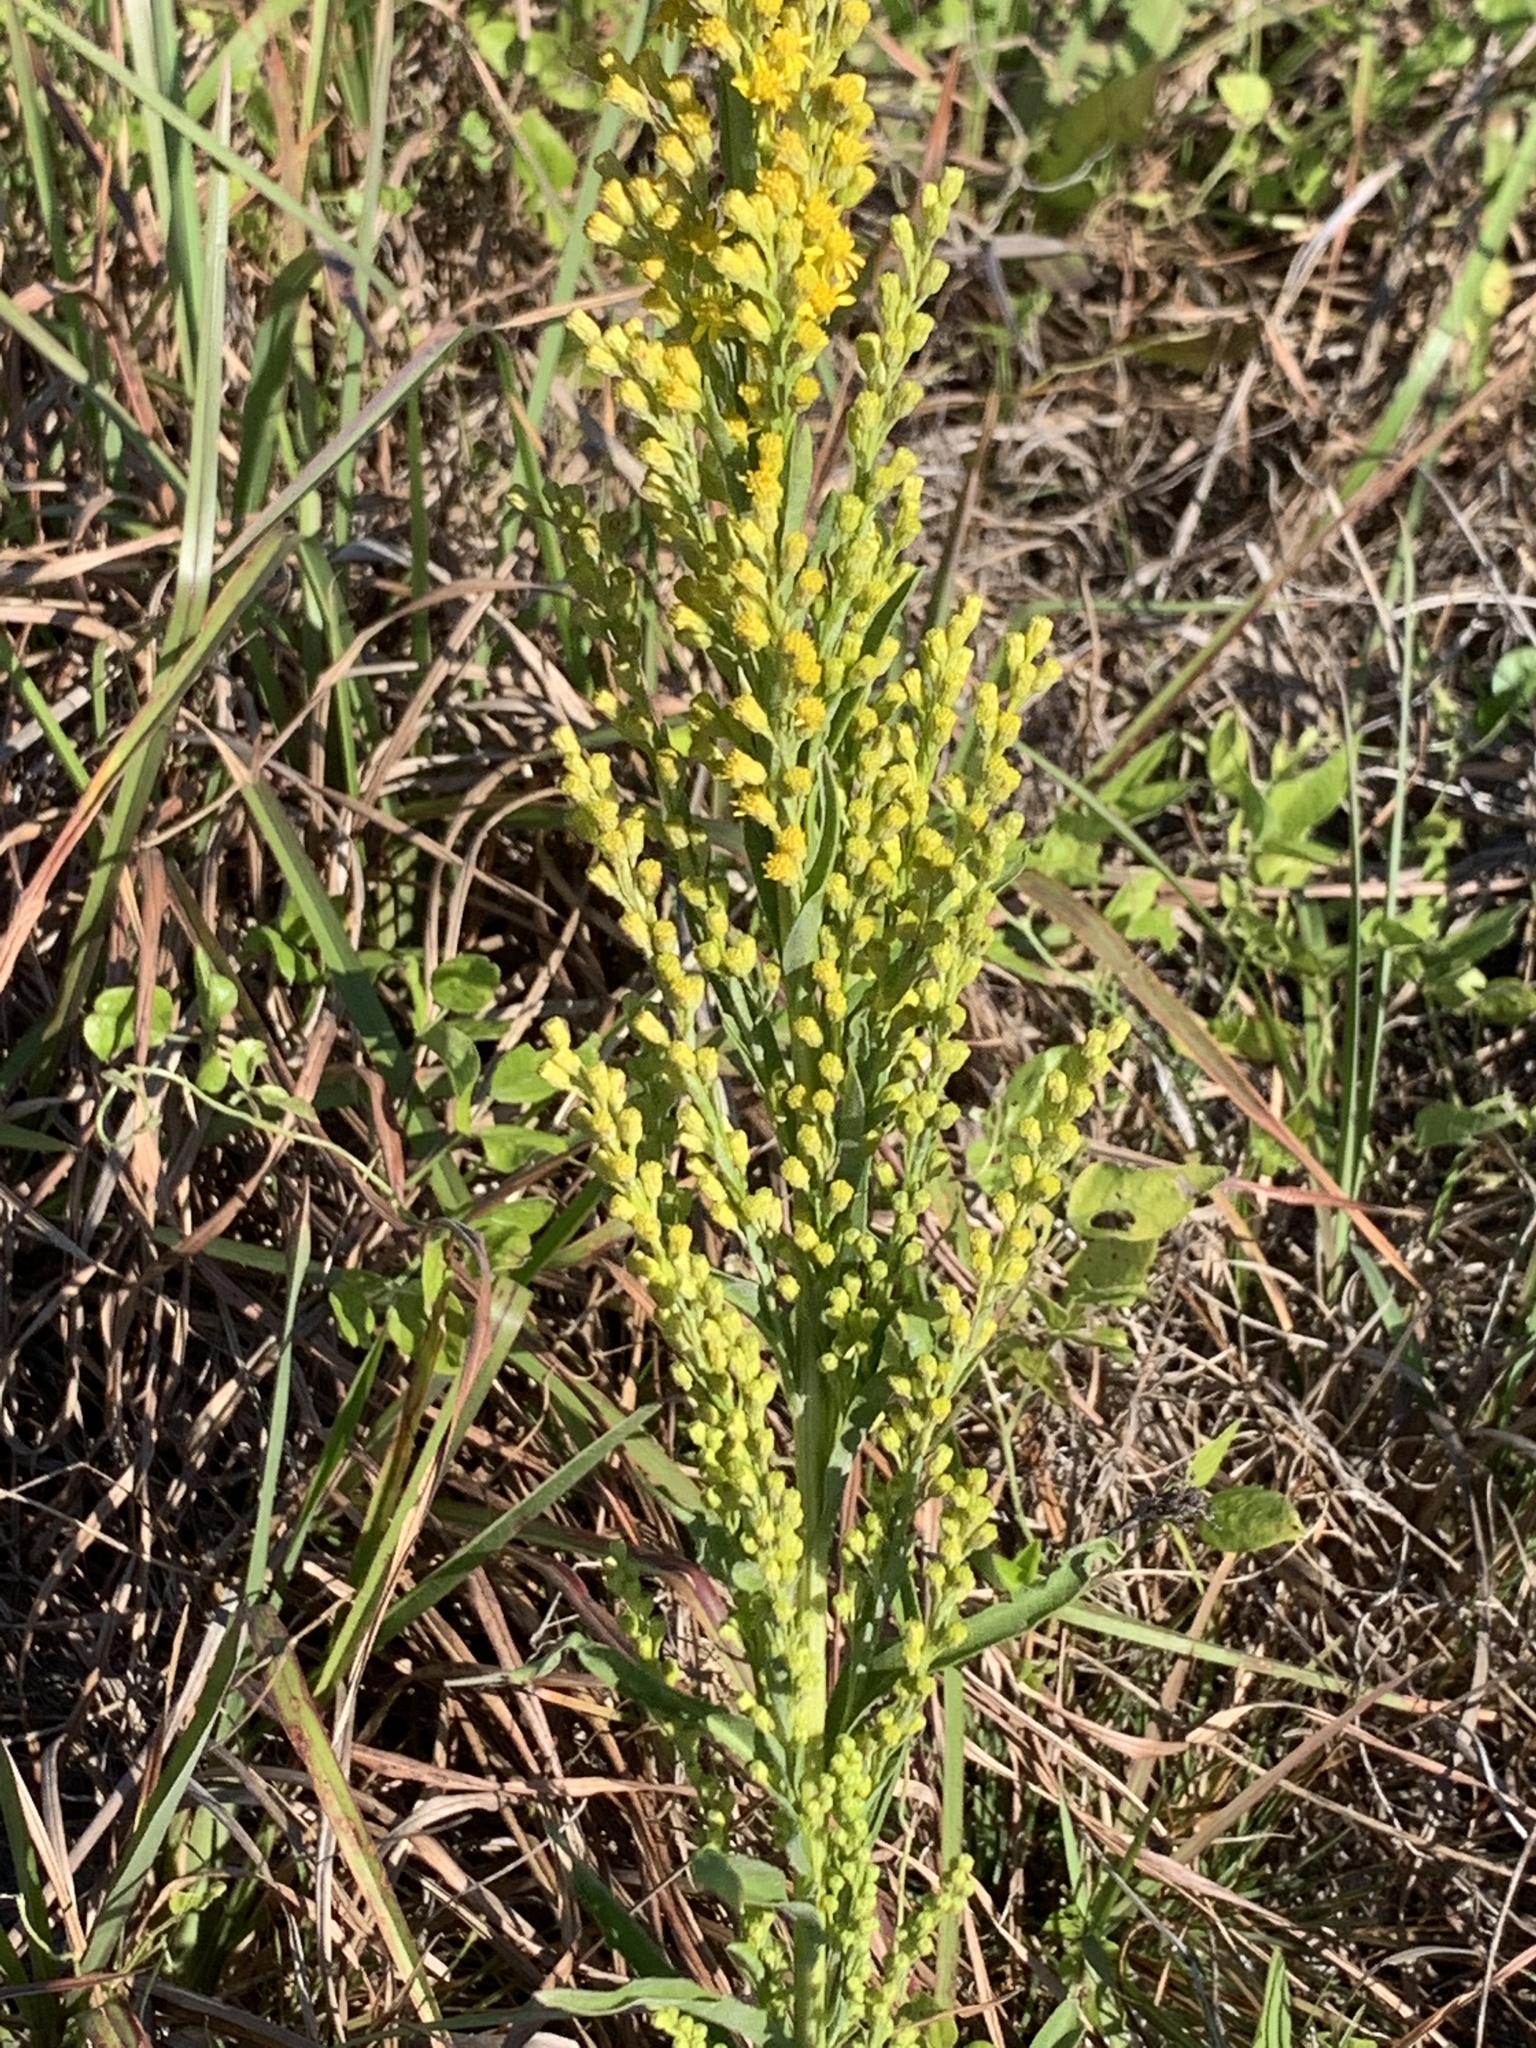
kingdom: Plantae
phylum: Tracheophyta
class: Magnoliopsida
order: Asterales
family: Asteraceae
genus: Solidago
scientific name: Solidago mexicana
